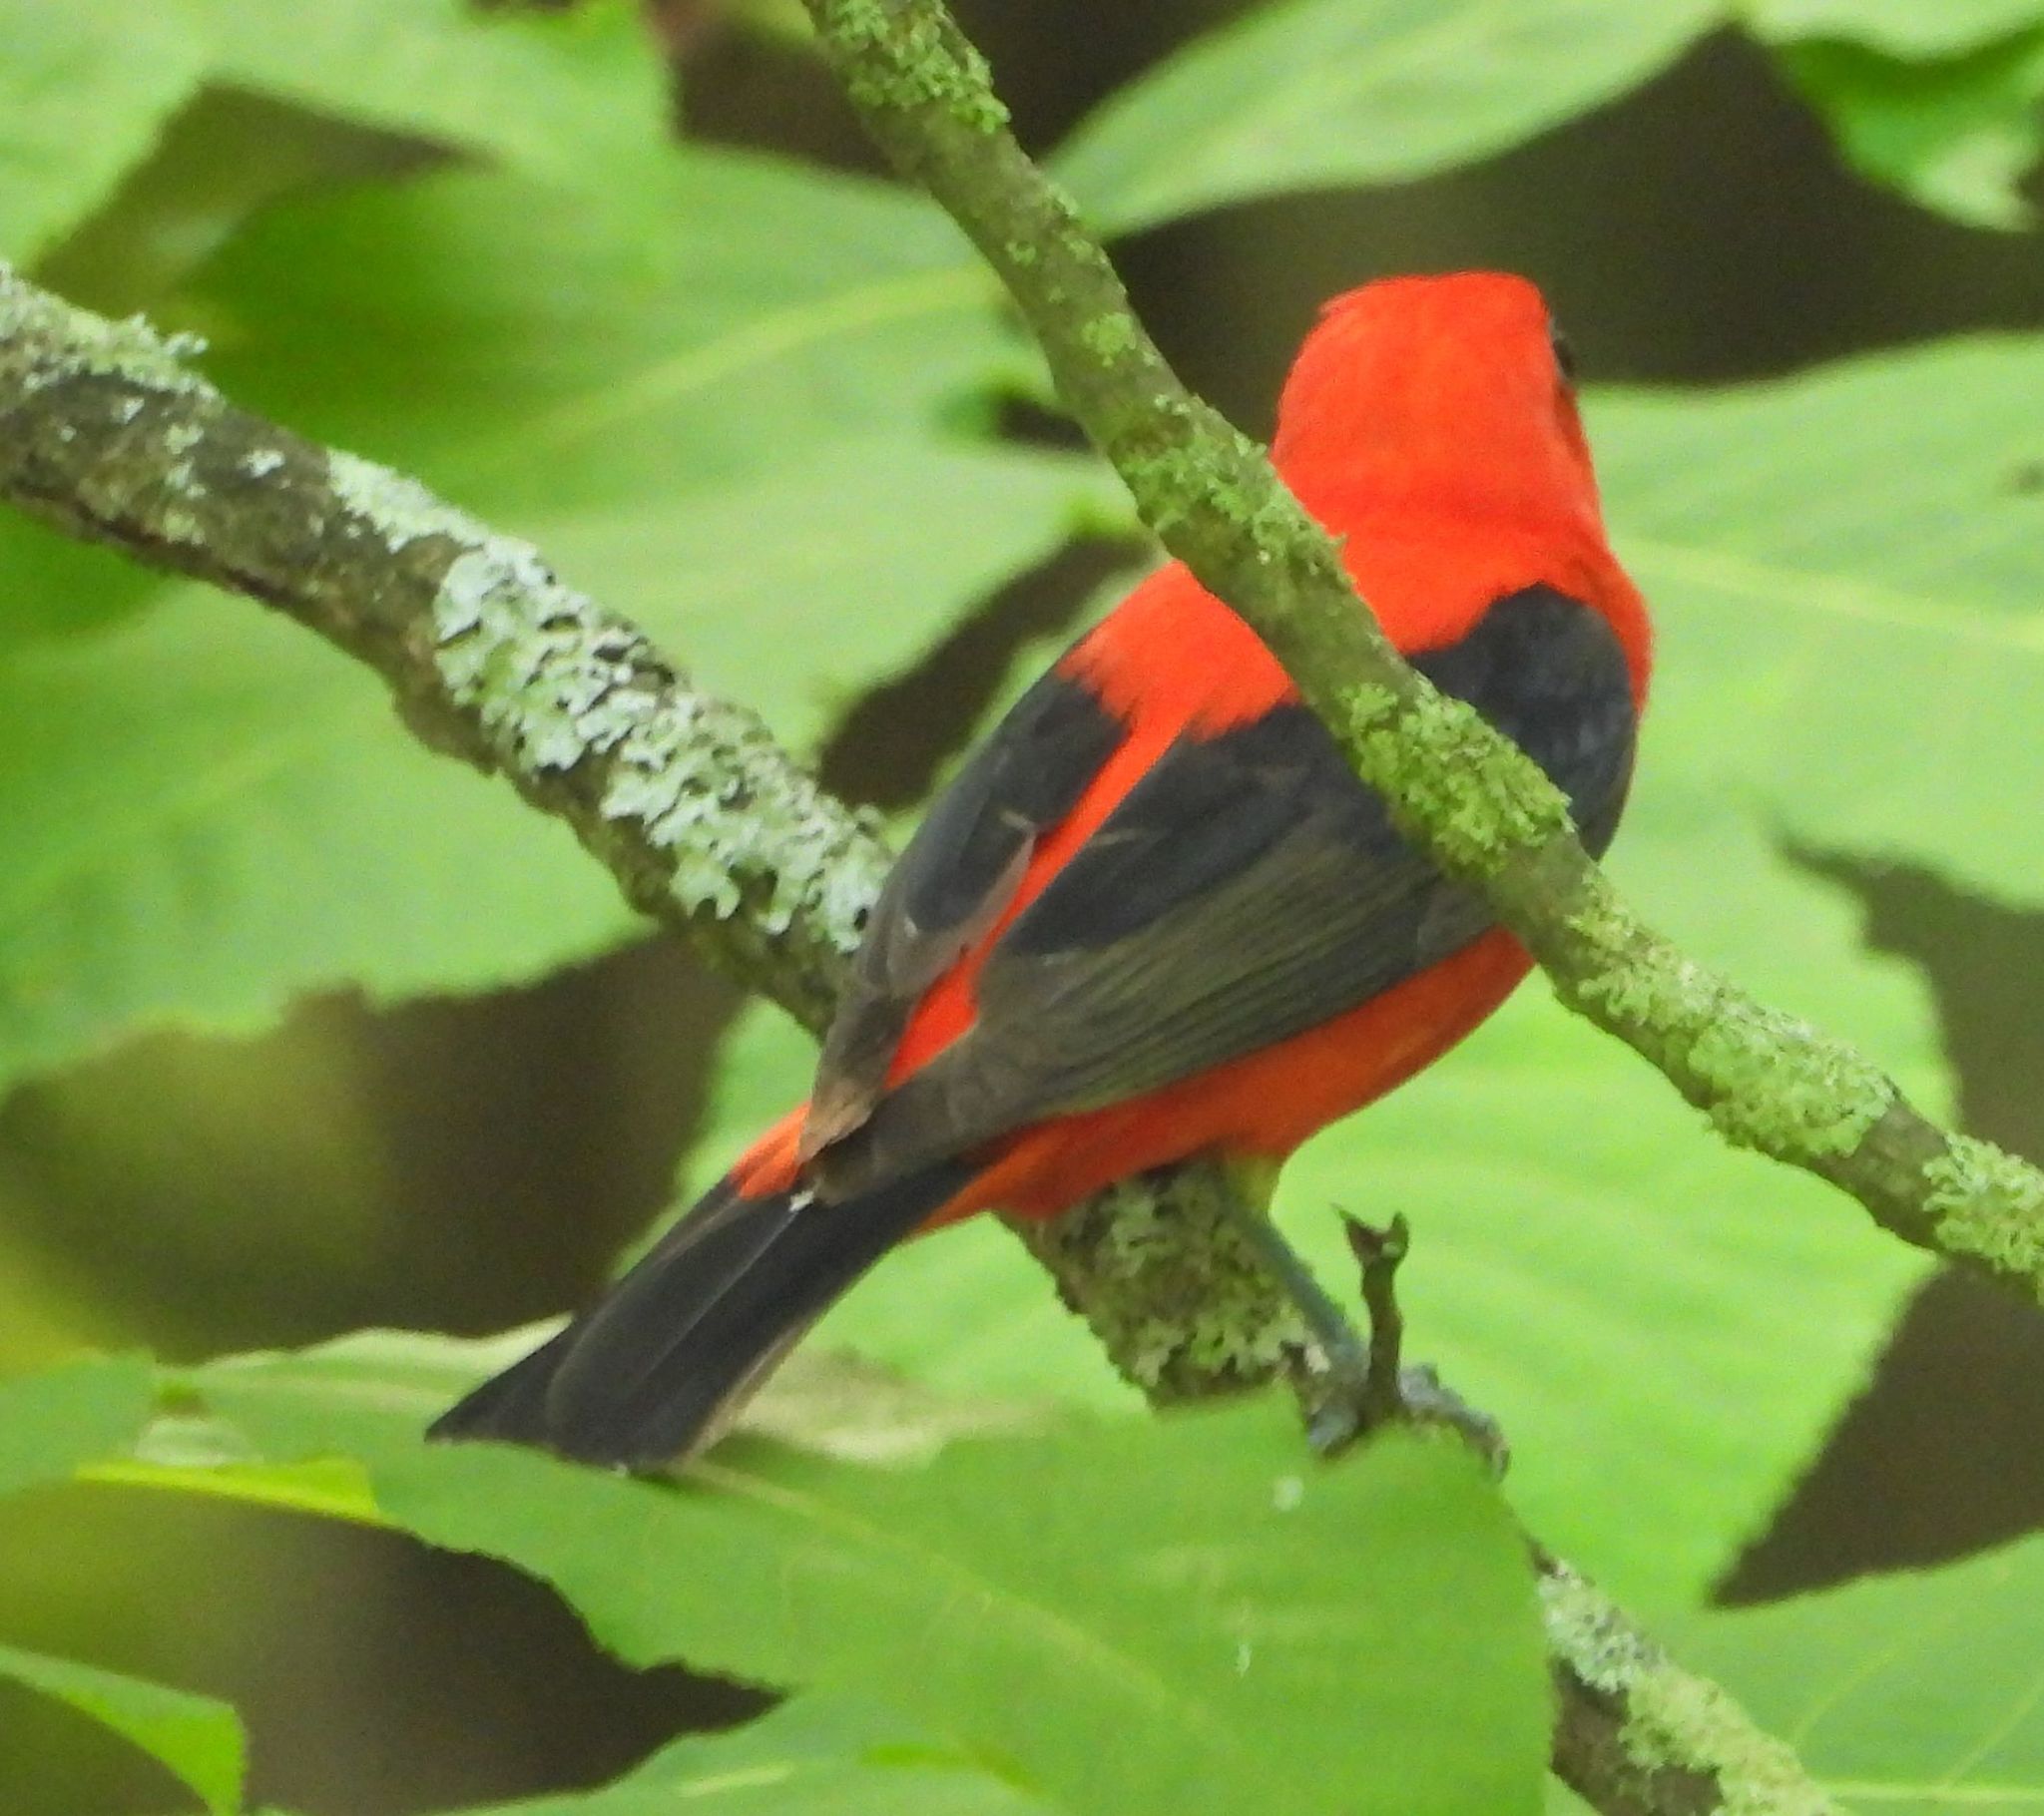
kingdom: Animalia
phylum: Chordata
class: Aves
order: Passeriformes
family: Cardinalidae
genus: Piranga
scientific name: Piranga olivacea
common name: Scarlet tanager
